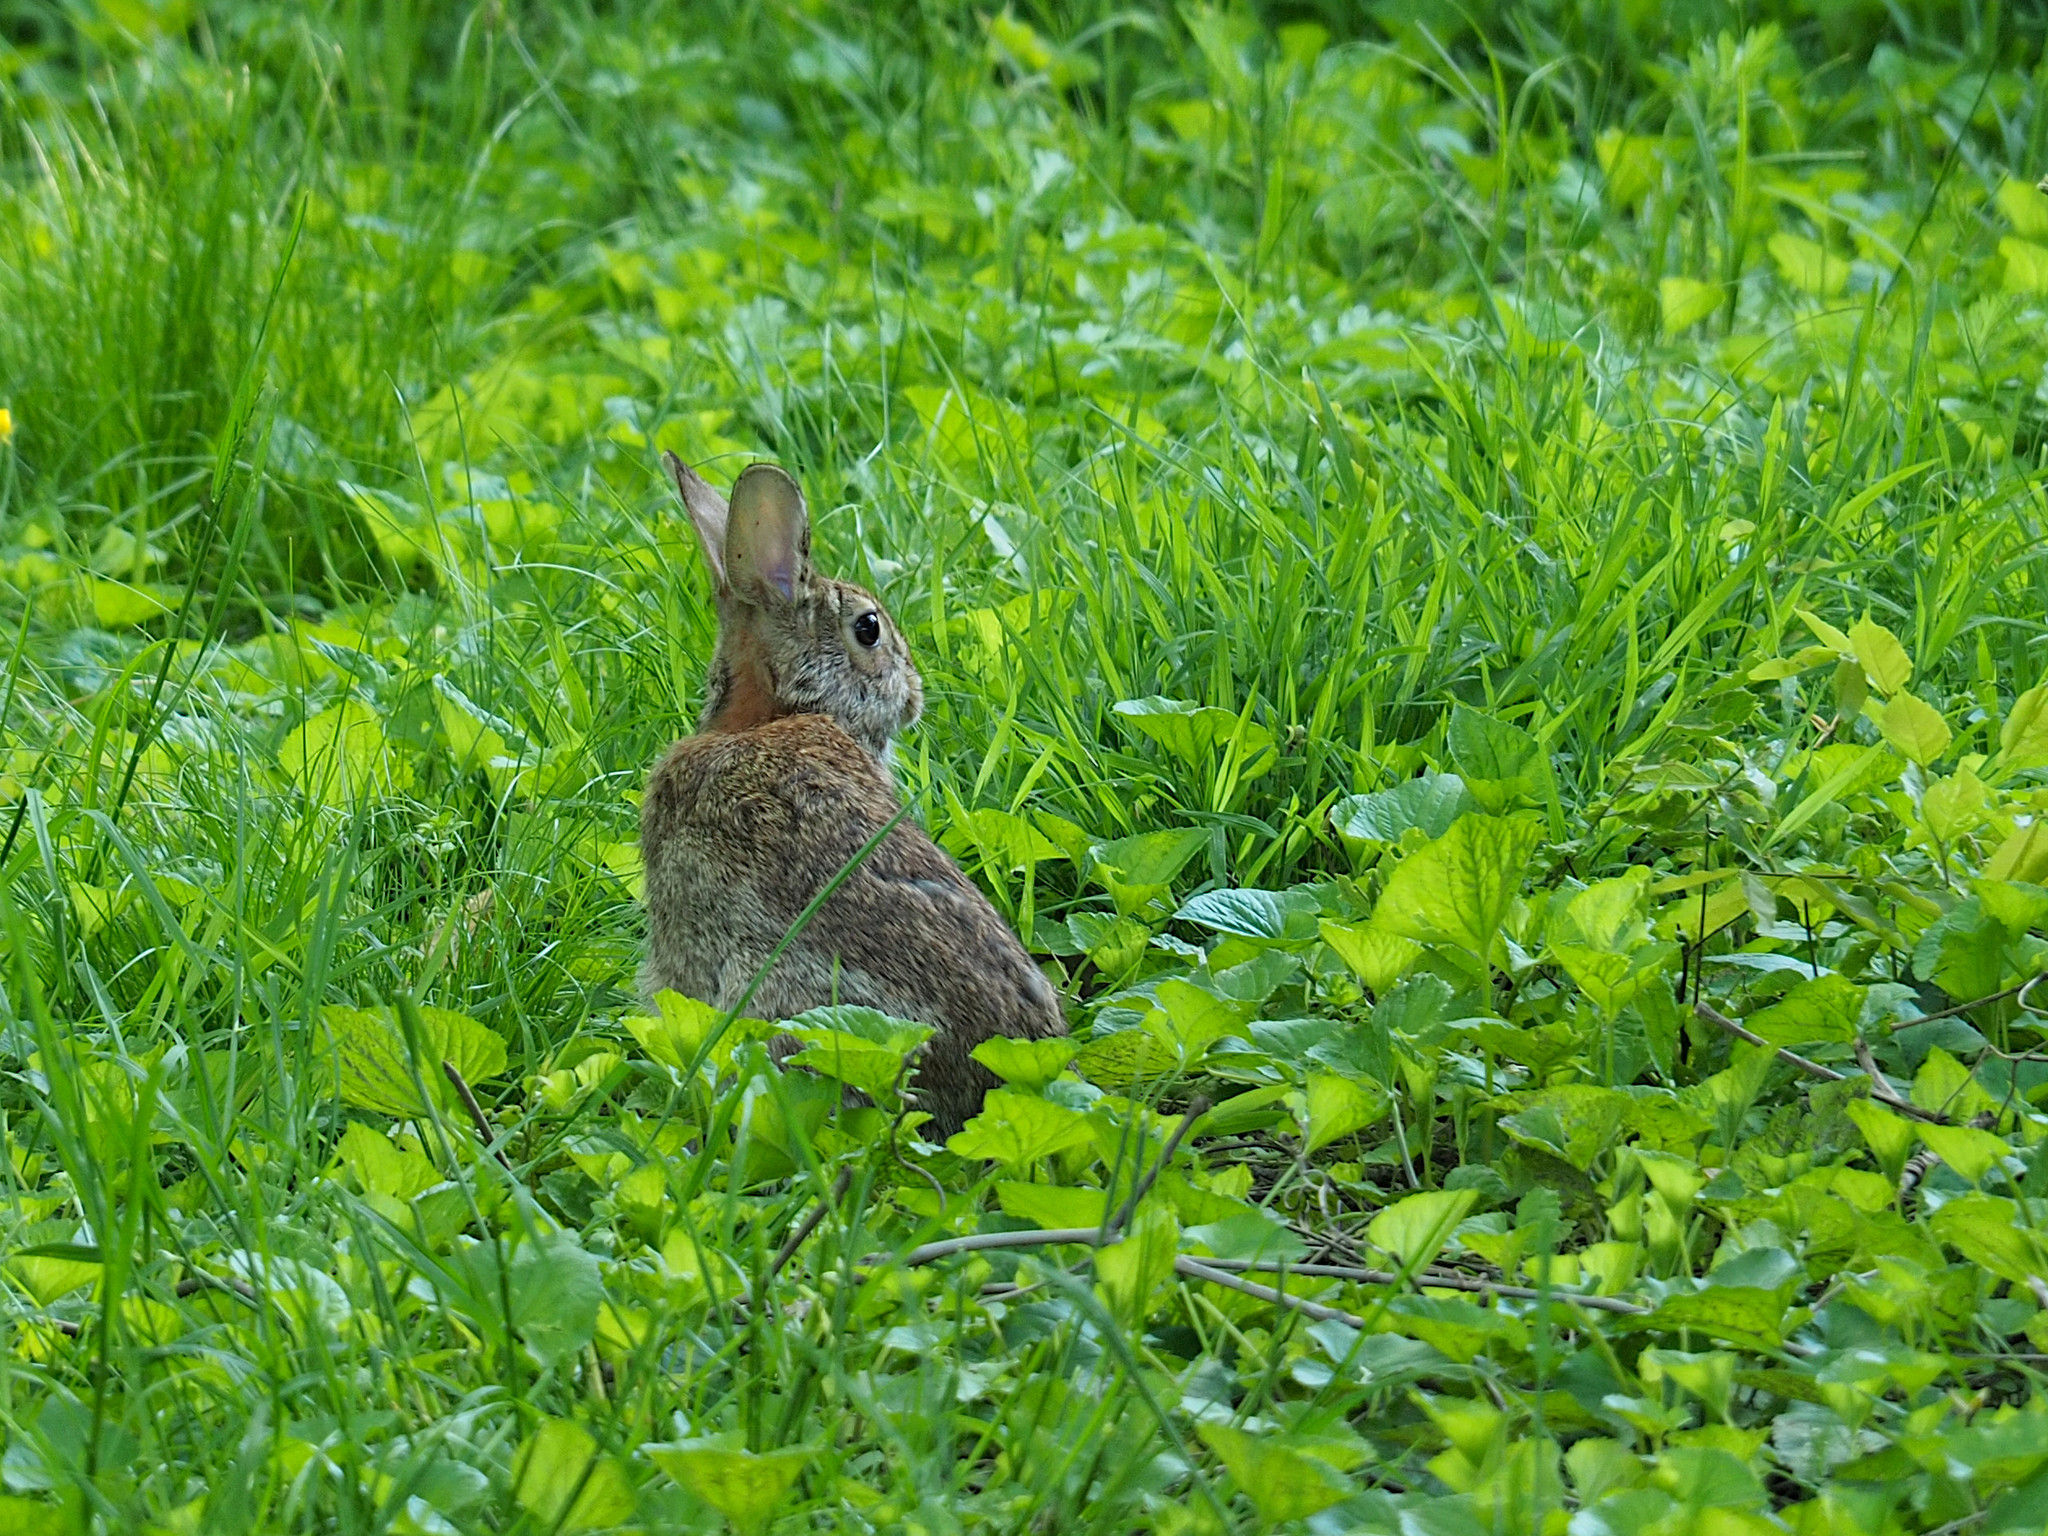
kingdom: Animalia
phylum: Chordata
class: Mammalia
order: Lagomorpha
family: Leporidae
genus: Sylvilagus
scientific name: Sylvilagus floridanus
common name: Eastern cottontail
